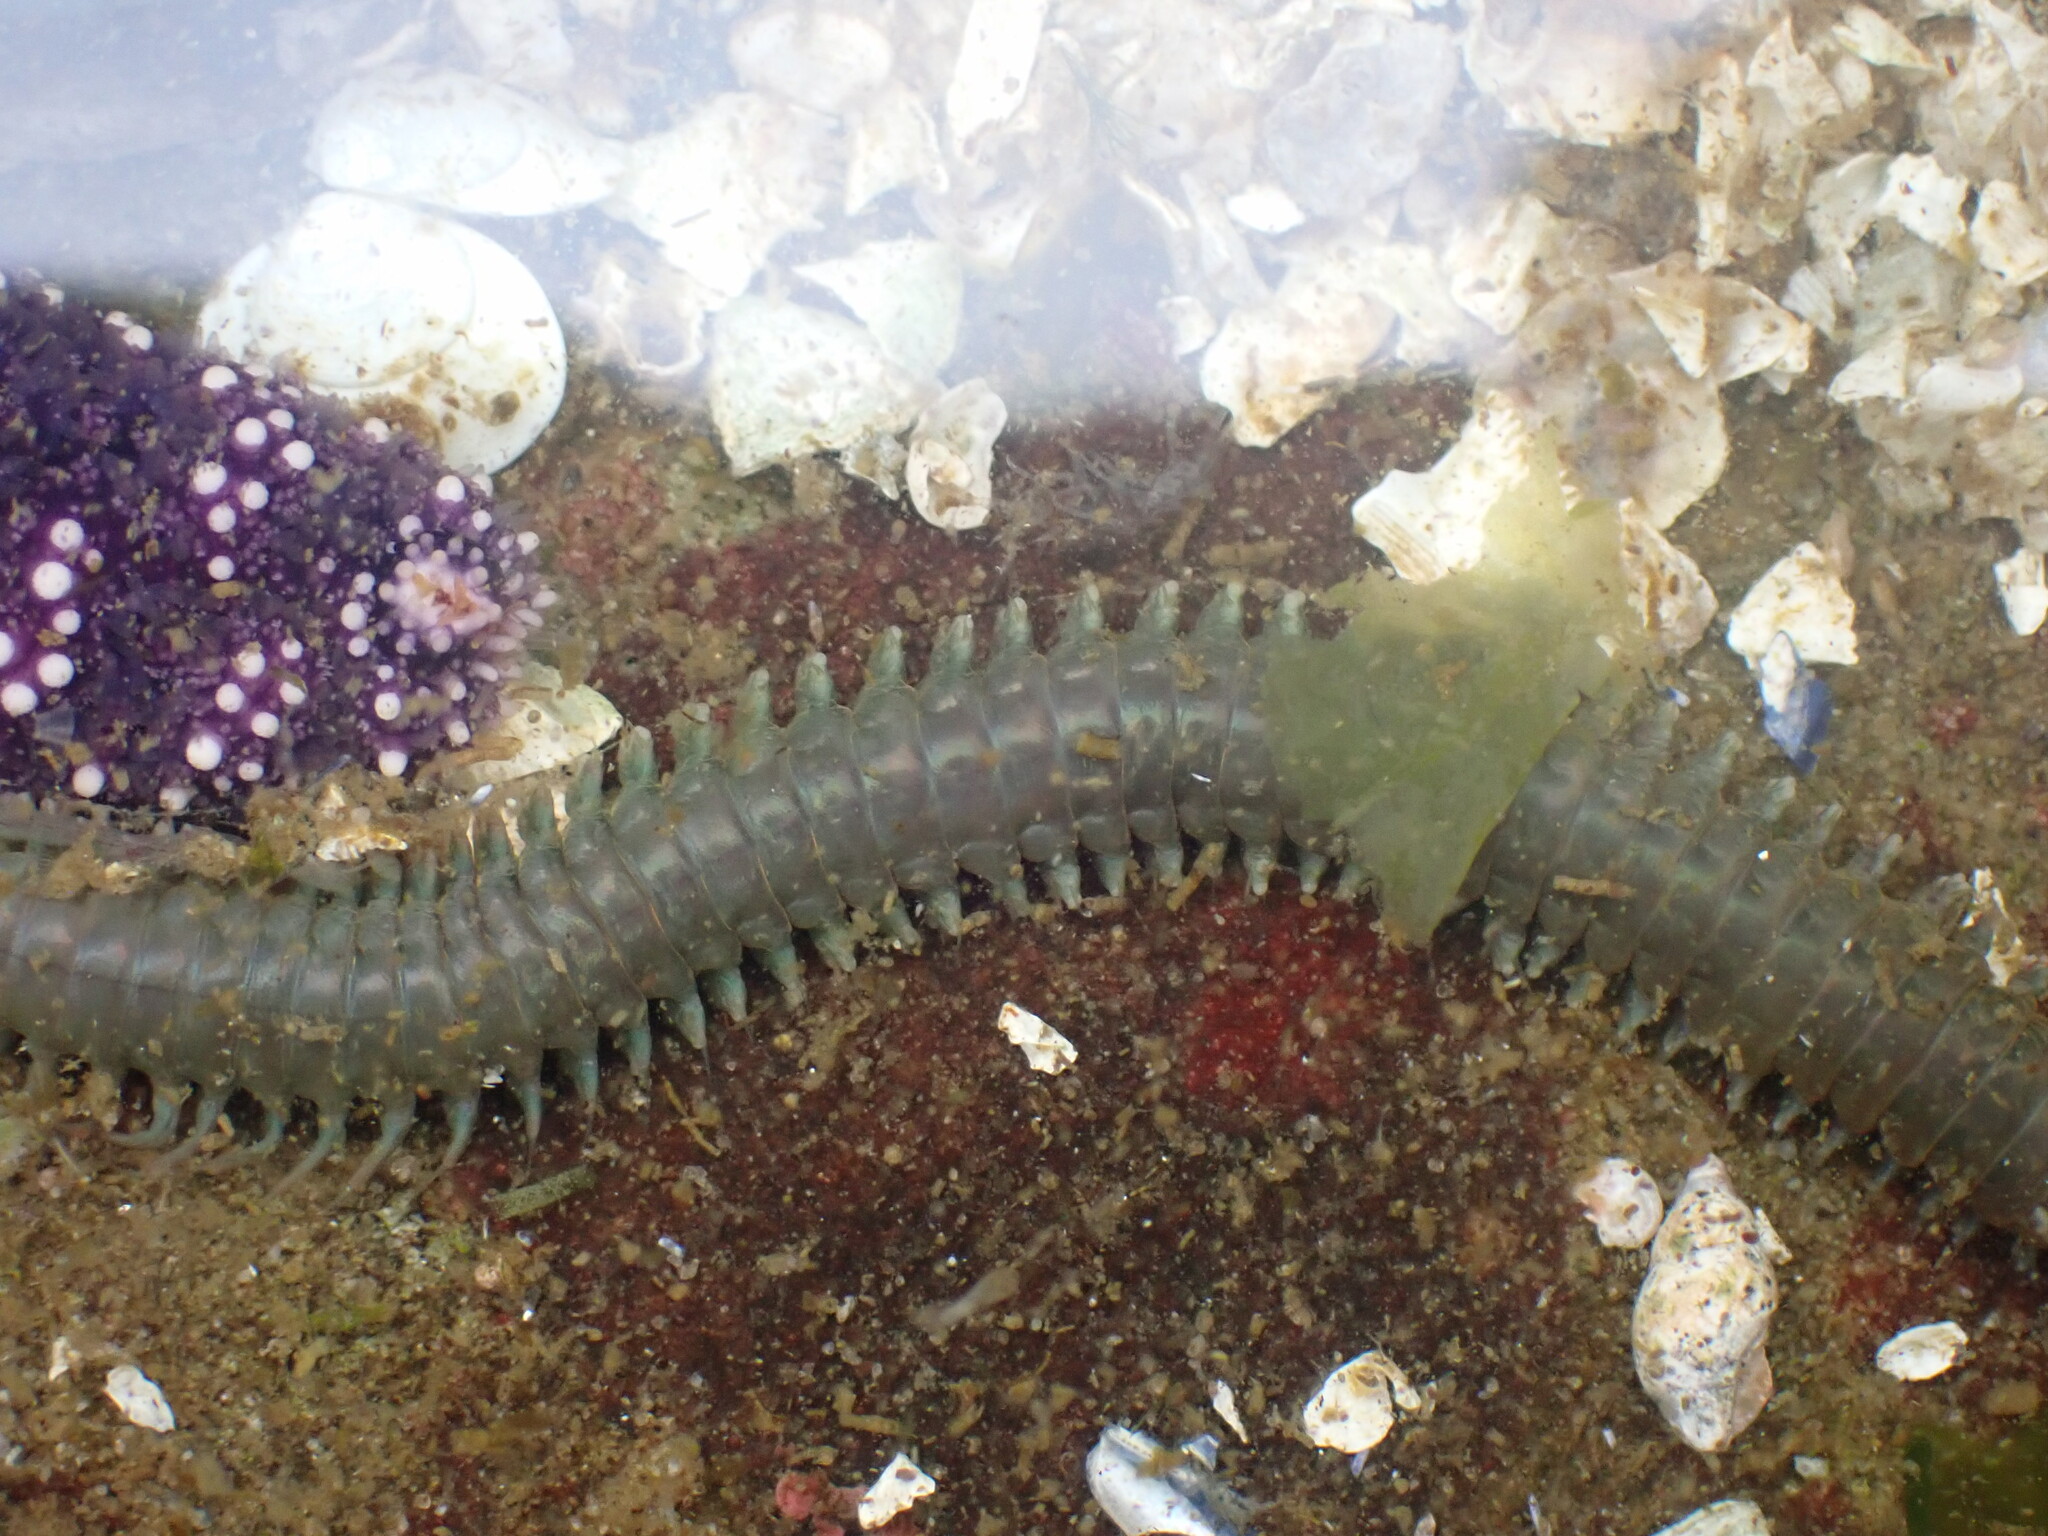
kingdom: Animalia
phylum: Annelida
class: Polychaeta
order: Phyllodocida
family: Nereididae
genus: Nereis
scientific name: Nereis vexillosa
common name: Mussel worm
